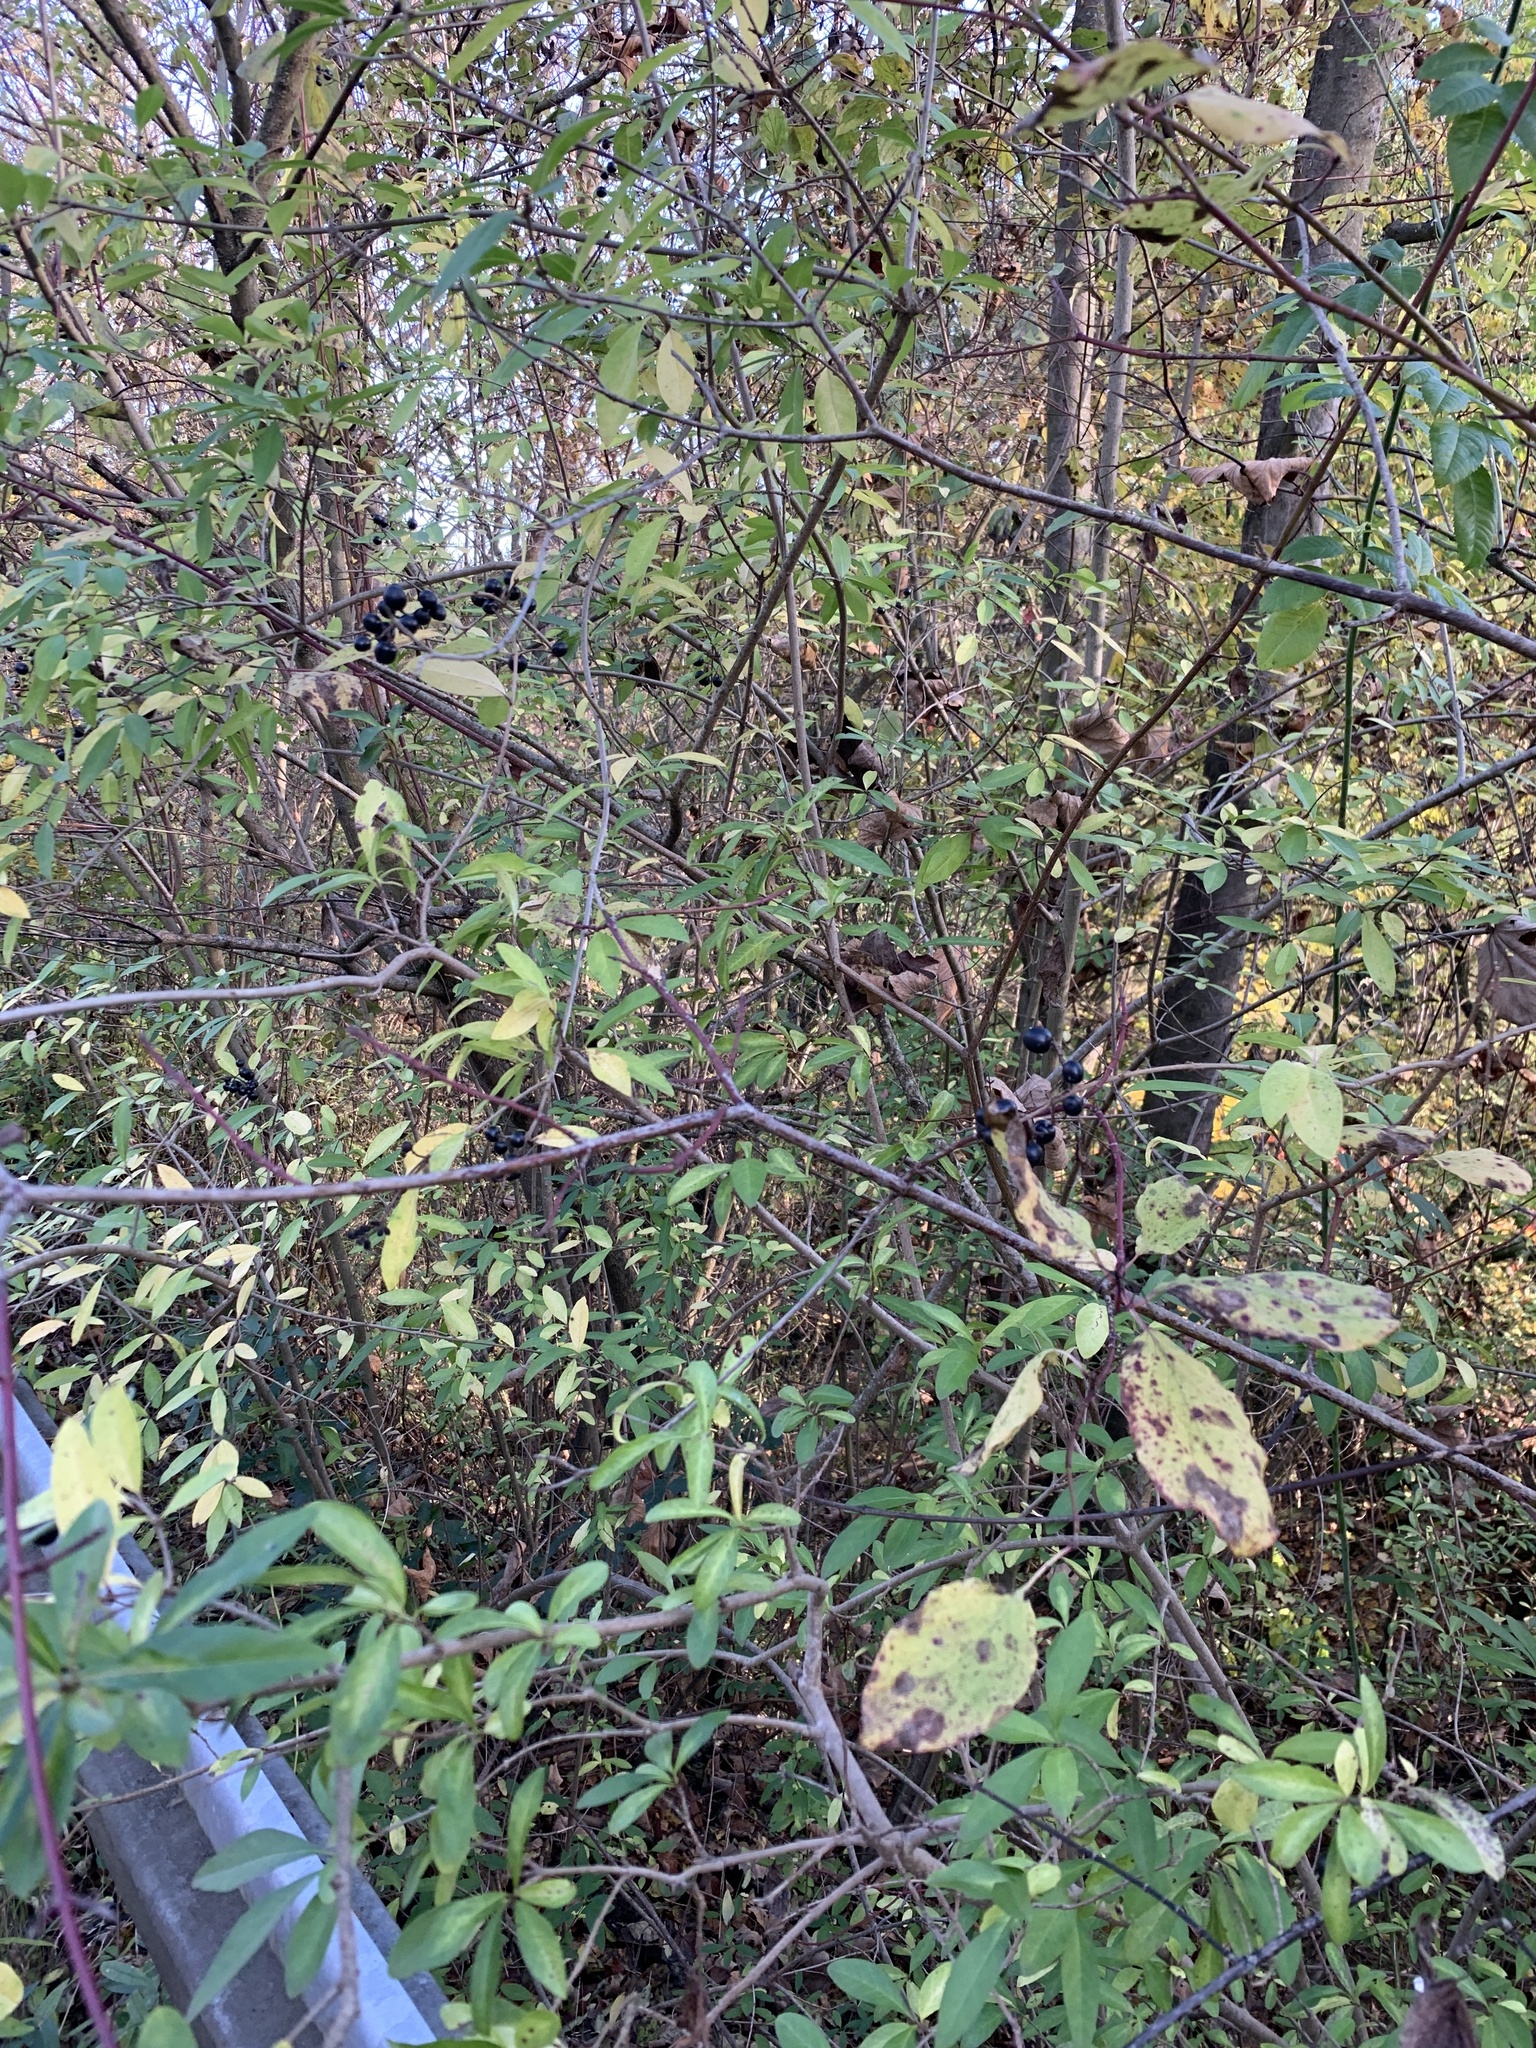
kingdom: Plantae
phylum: Tracheophyta
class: Magnoliopsida
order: Lamiales
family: Oleaceae
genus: Ligustrum
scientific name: Ligustrum vulgare
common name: Wild privet
